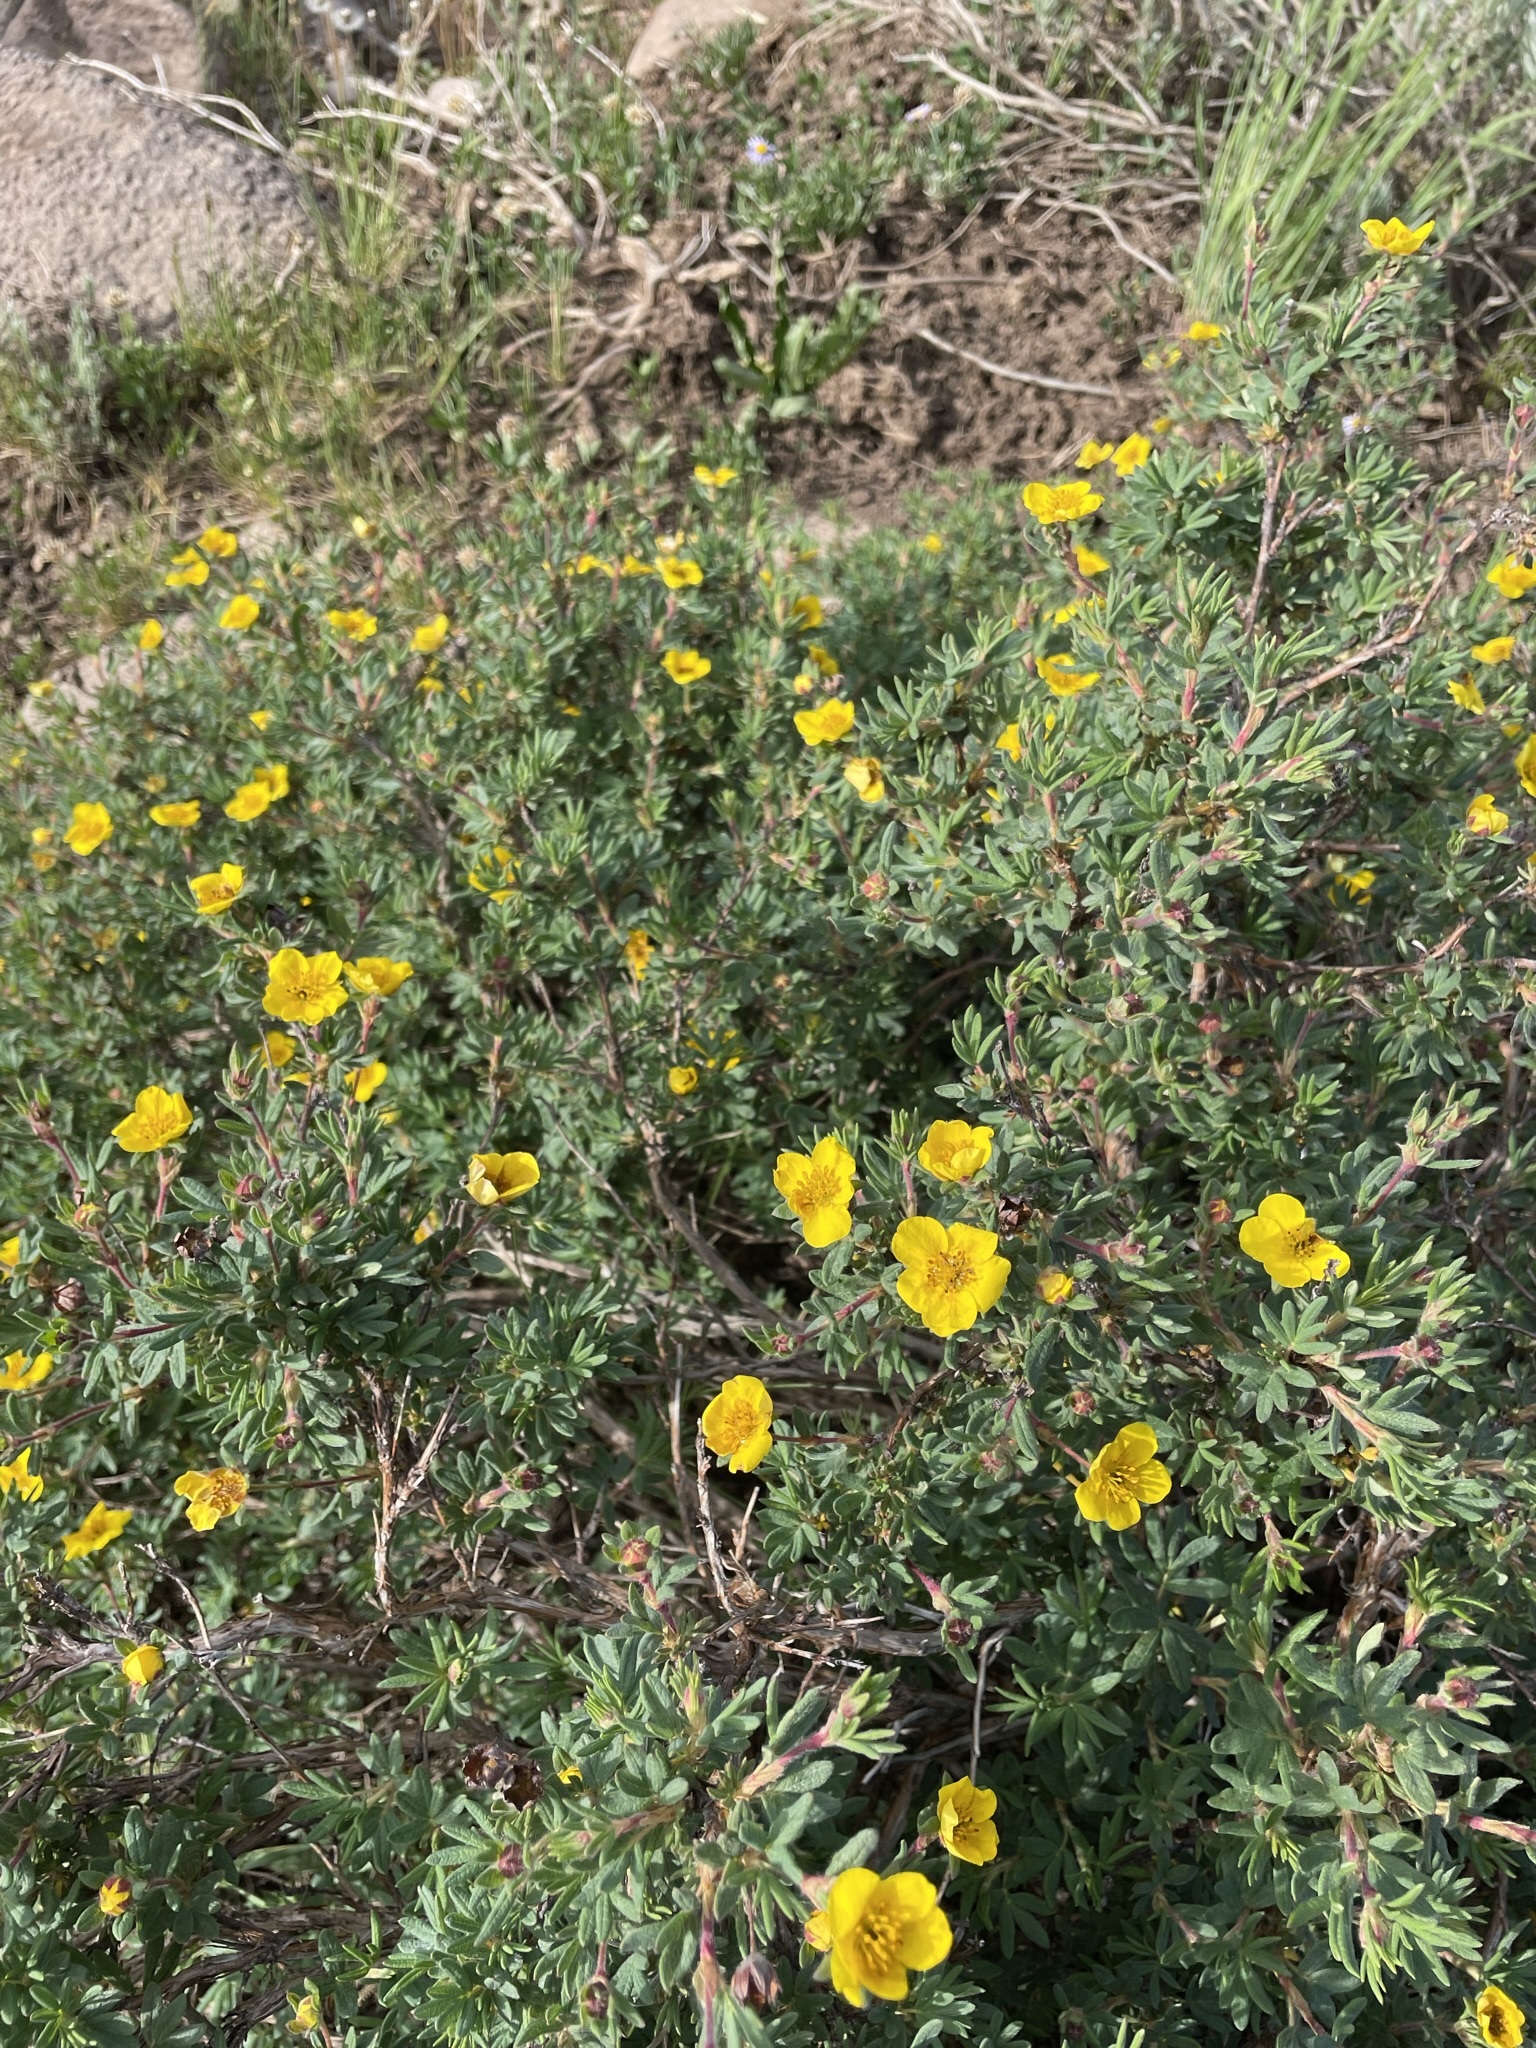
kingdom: Plantae
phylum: Tracheophyta
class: Magnoliopsida
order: Rosales
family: Rosaceae
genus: Dasiphora
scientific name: Dasiphora fruticosa
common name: Shrubby cinquefoil
